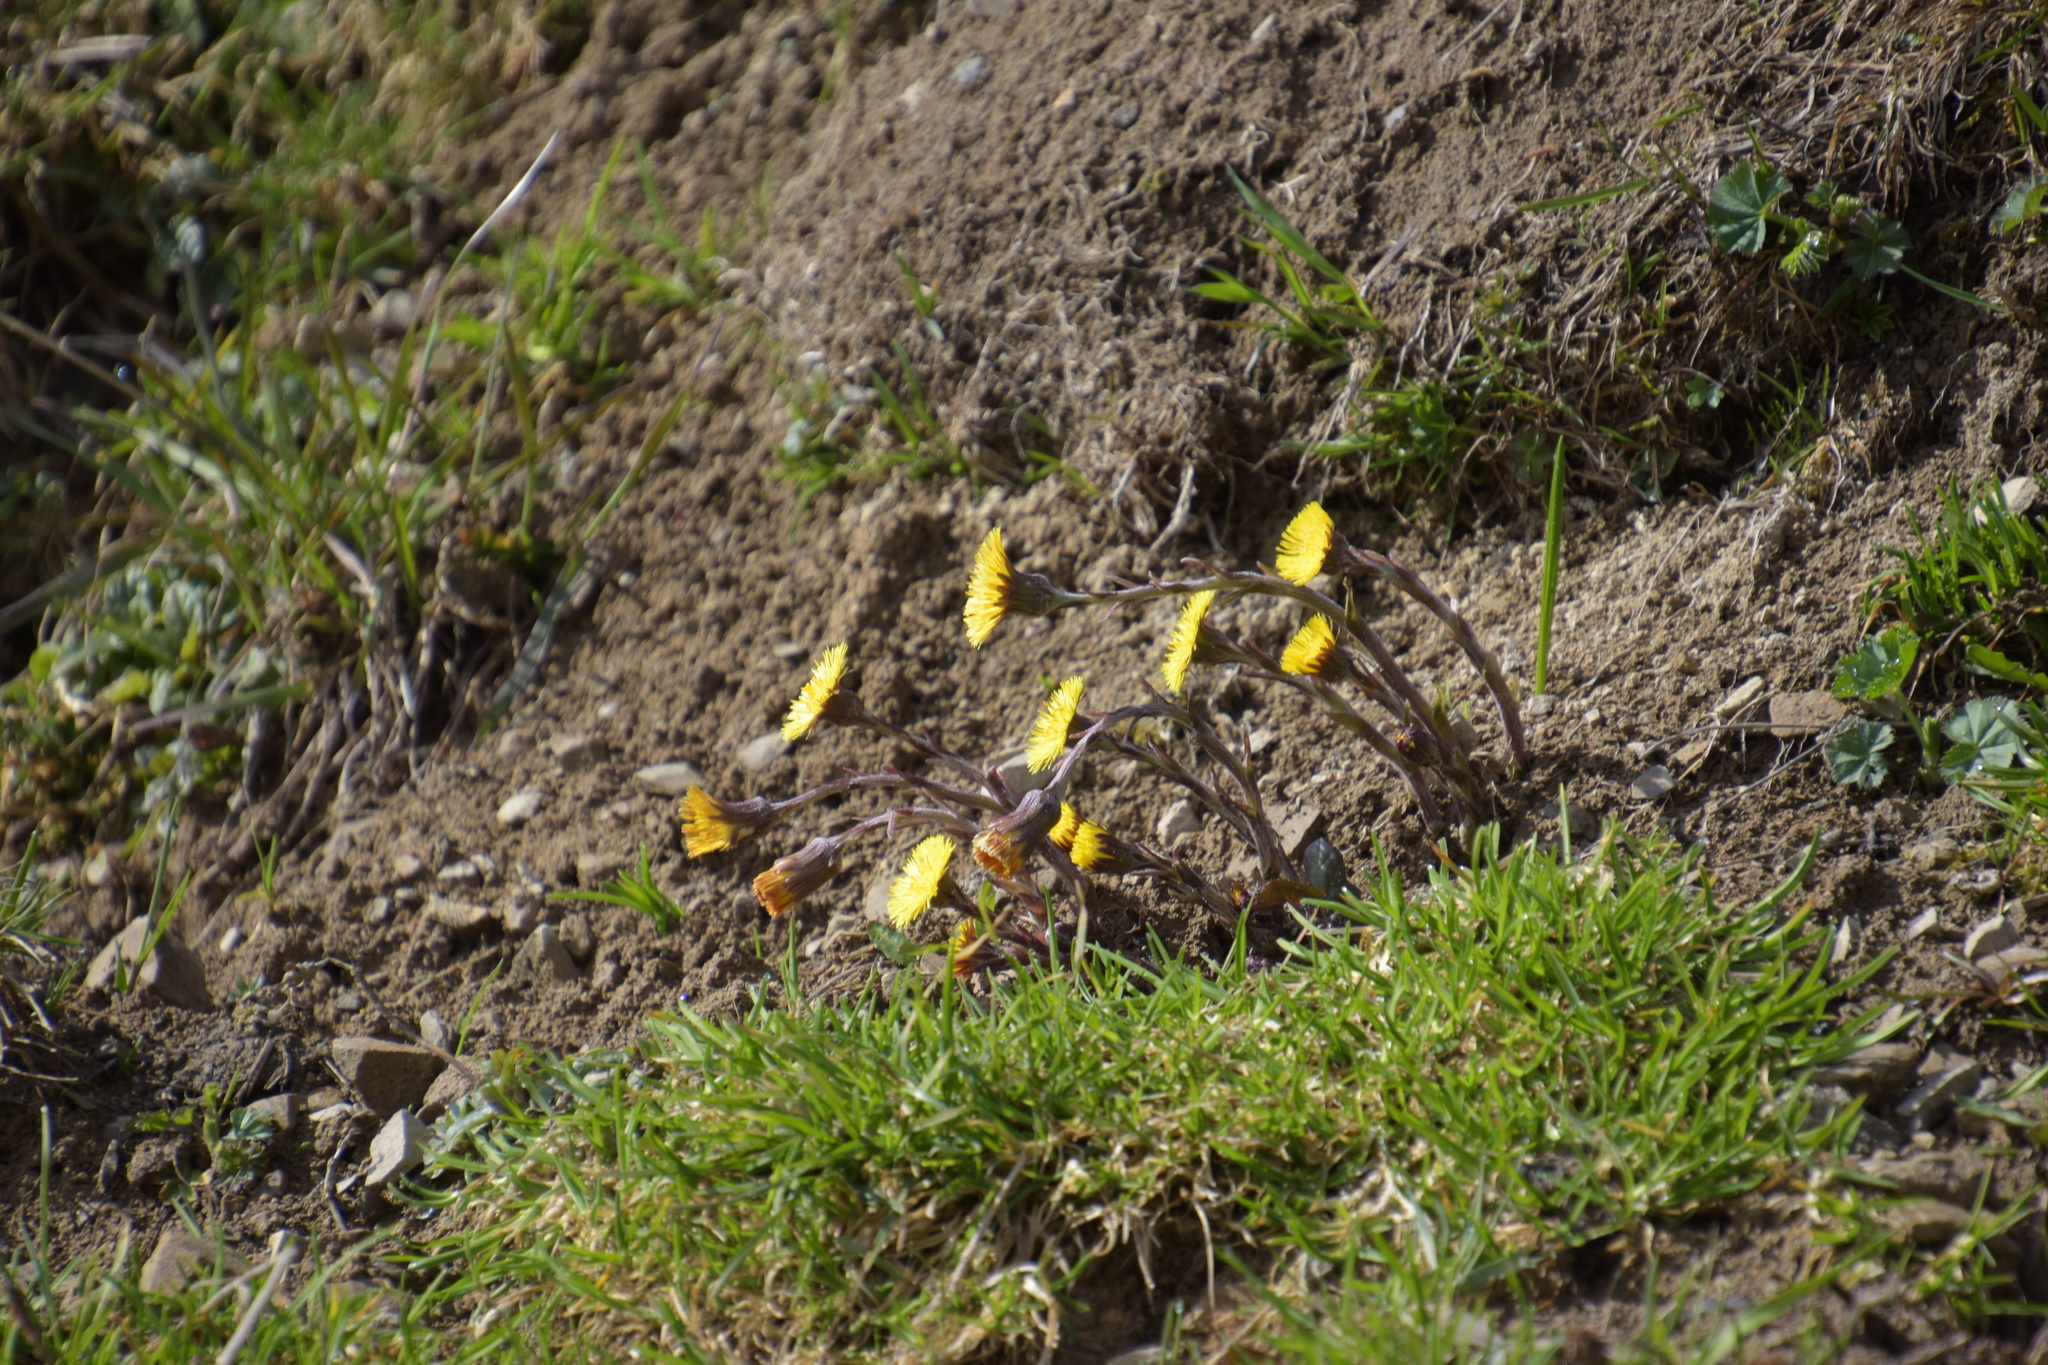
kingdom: Plantae
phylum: Tracheophyta
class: Magnoliopsida
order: Asterales
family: Asteraceae
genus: Tussilago
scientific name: Tussilago farfara
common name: Coltsfoot
